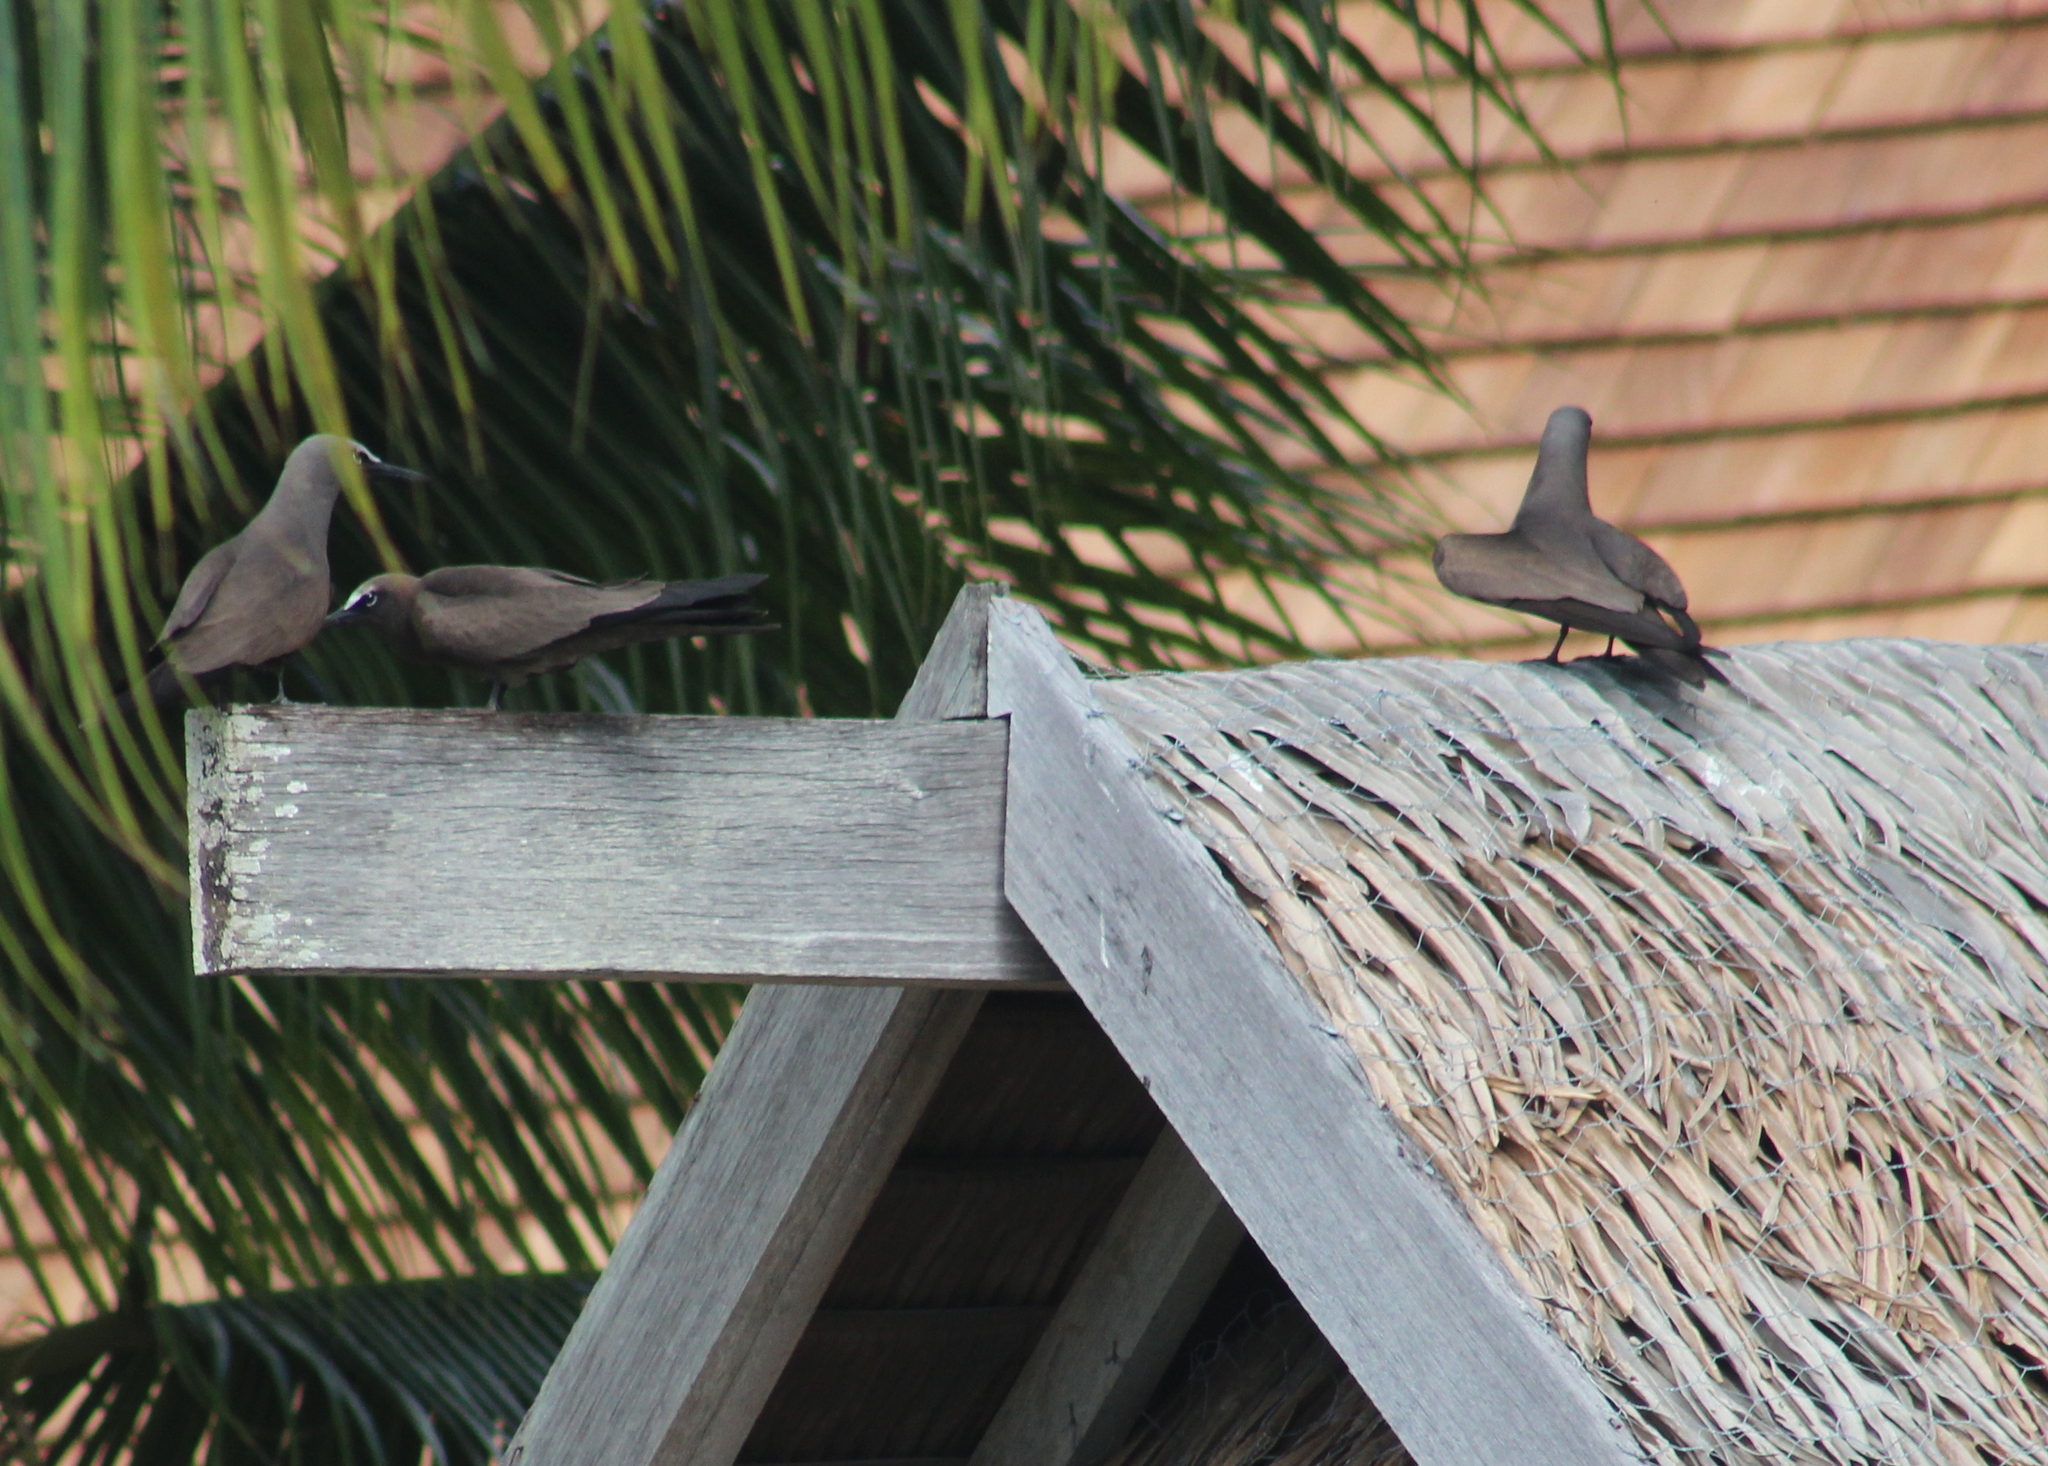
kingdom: Animalia
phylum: Chordata
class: Aves
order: Charadriiformes
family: Laridae
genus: Anous
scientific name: Anous stolidus
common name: Brown noddy
